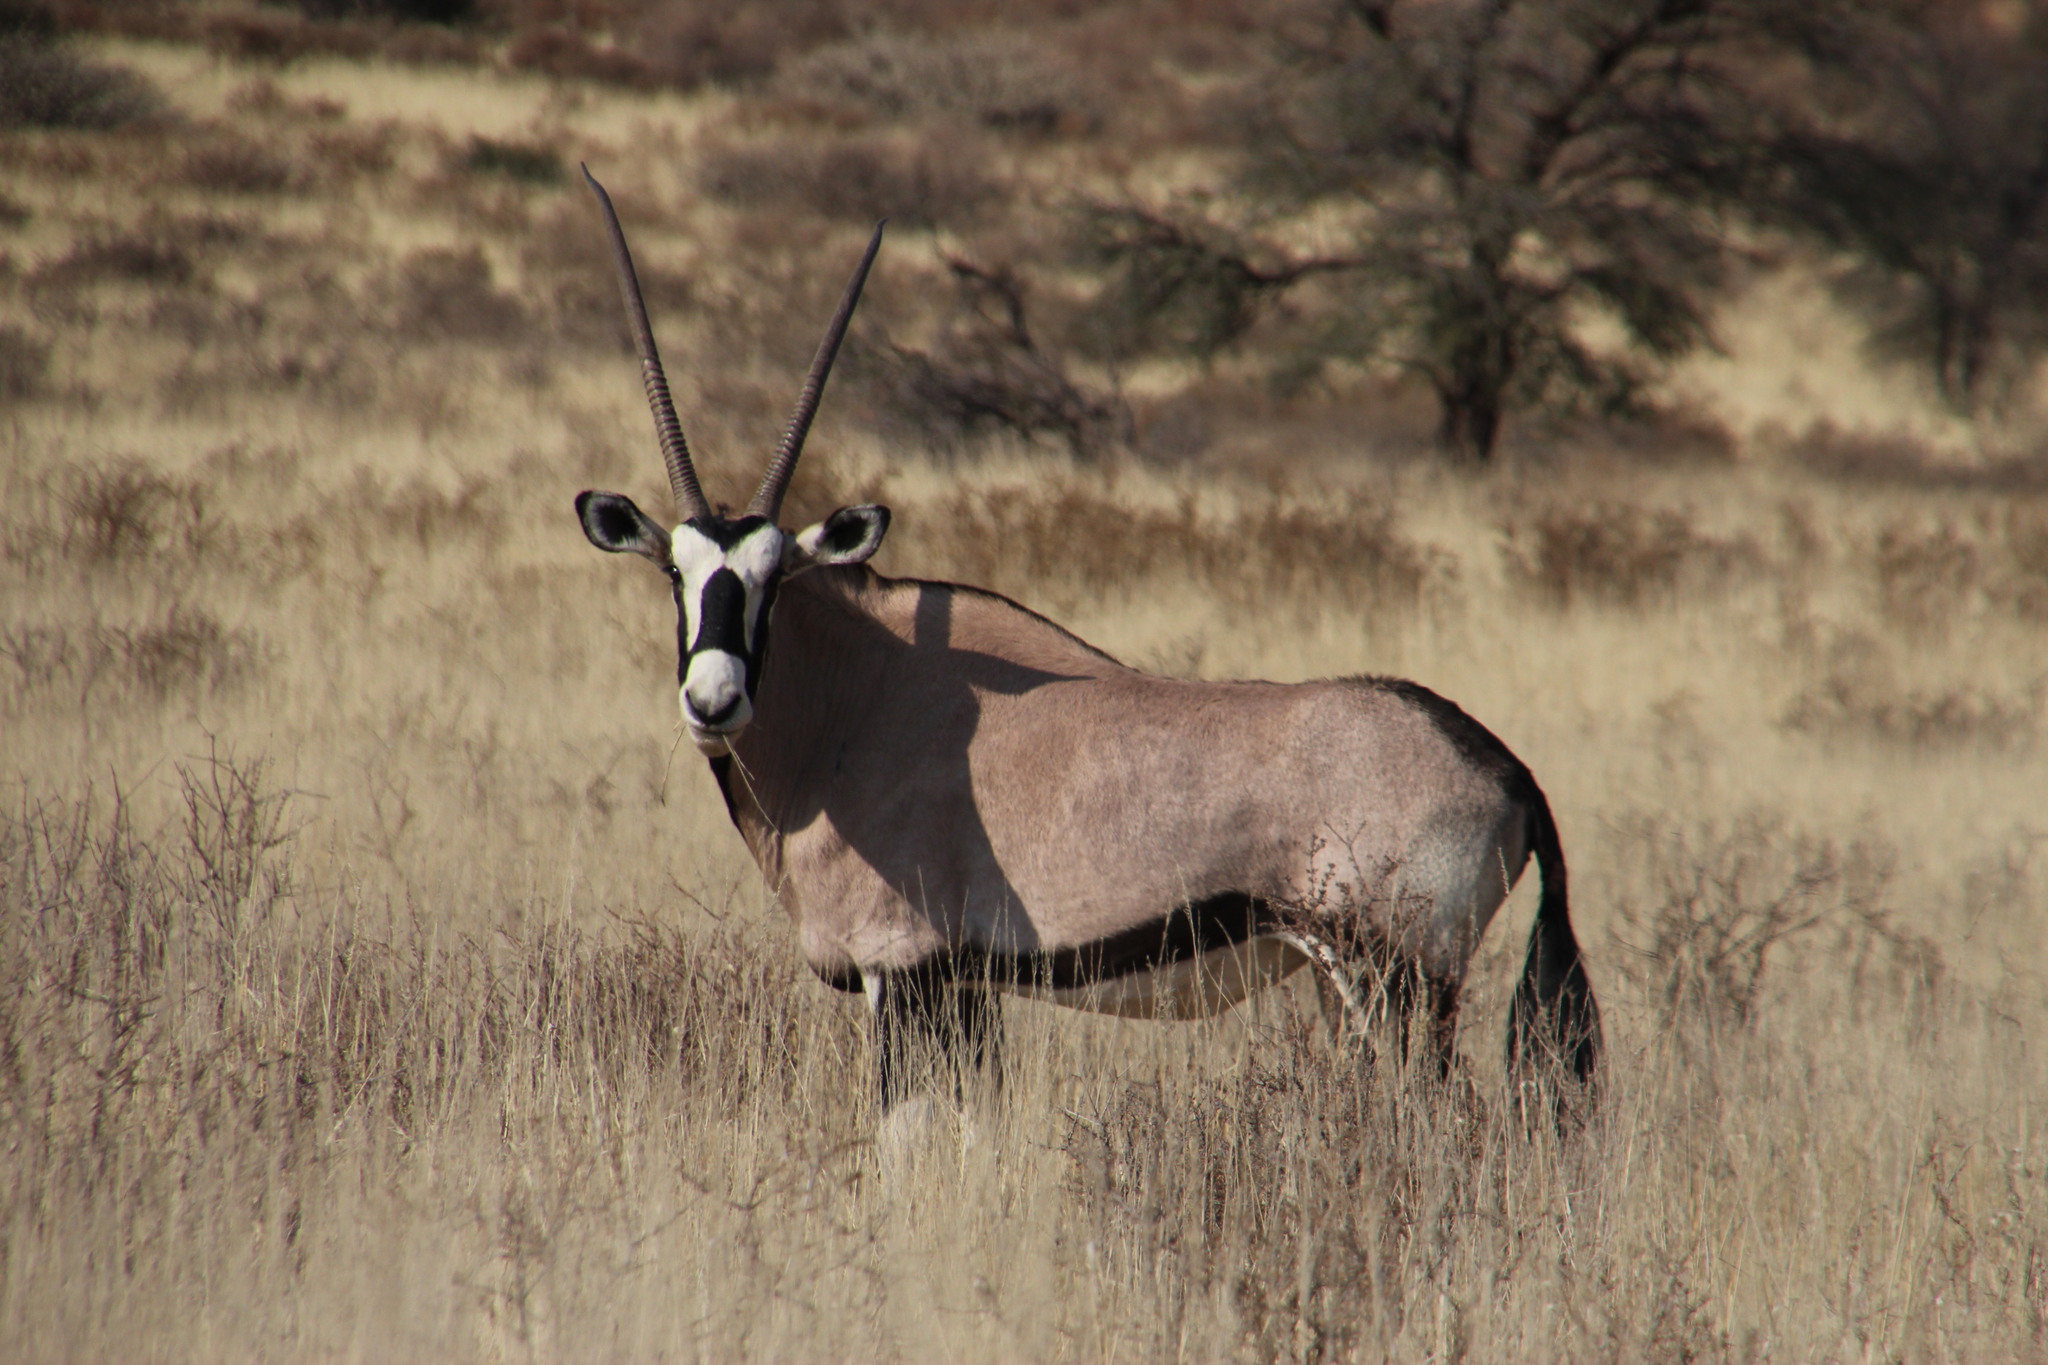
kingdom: Animalia
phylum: Chordata
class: Mammalia
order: Artiodactyla
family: Bovidae
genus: Oryx
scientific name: Oryx gazella
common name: Gemsbok
